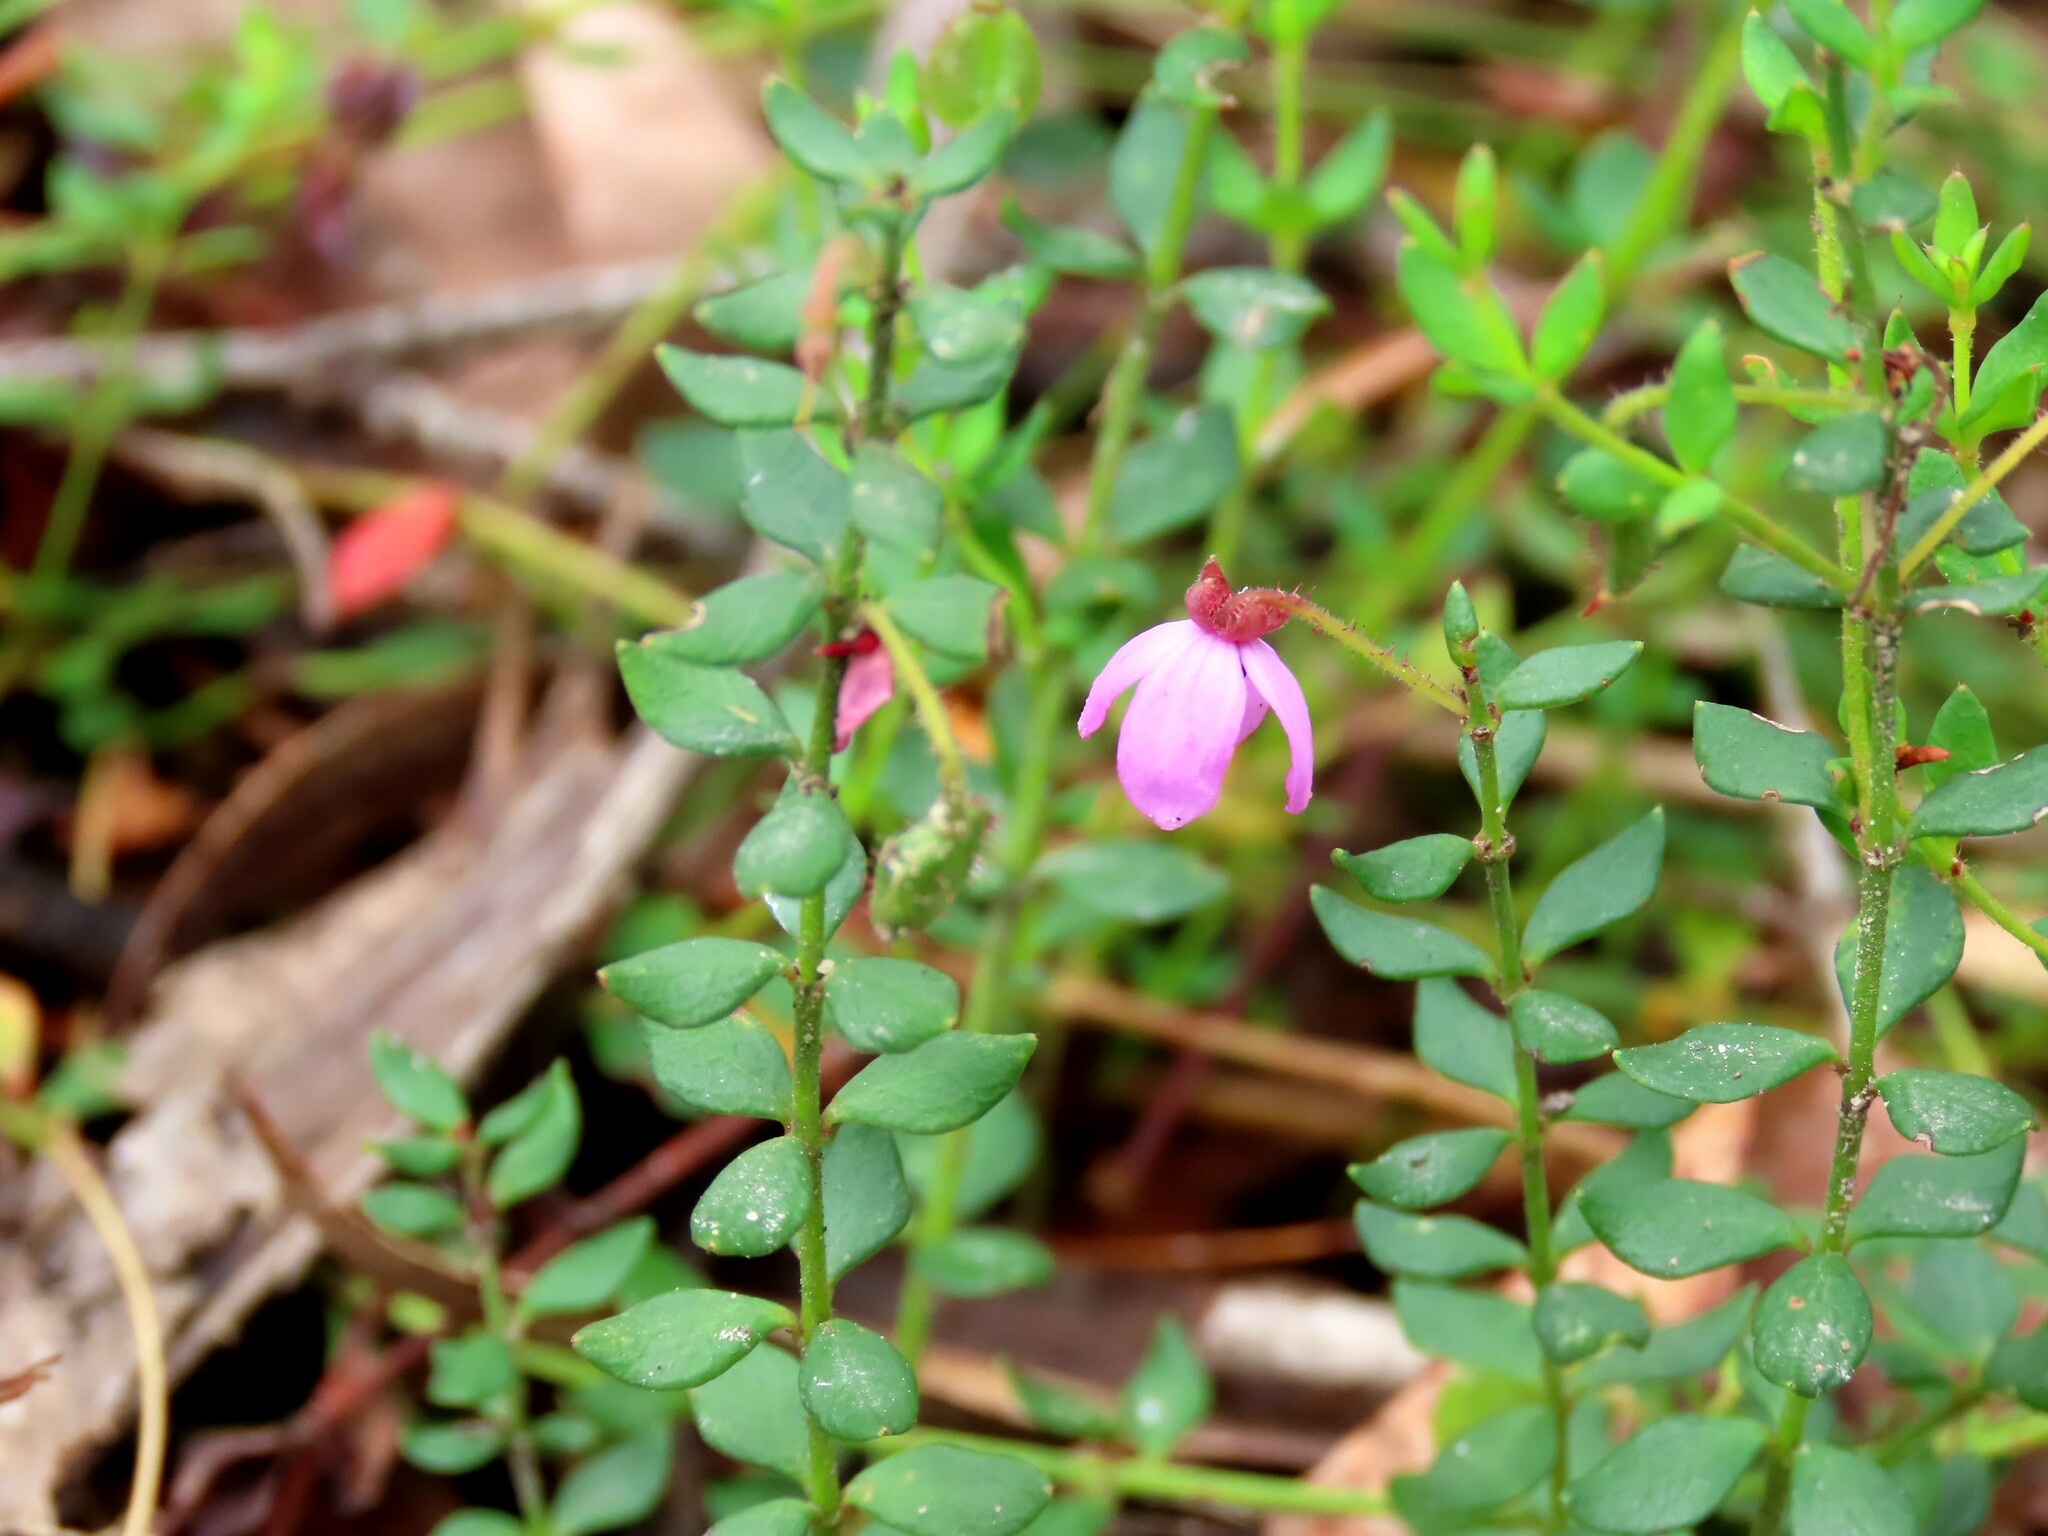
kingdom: Plantae
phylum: Tracheophyta
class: Magnoliopsida
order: Oxalidales
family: Elaeocarpaceae
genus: Tetratheca
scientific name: Tetratheca ciliata
